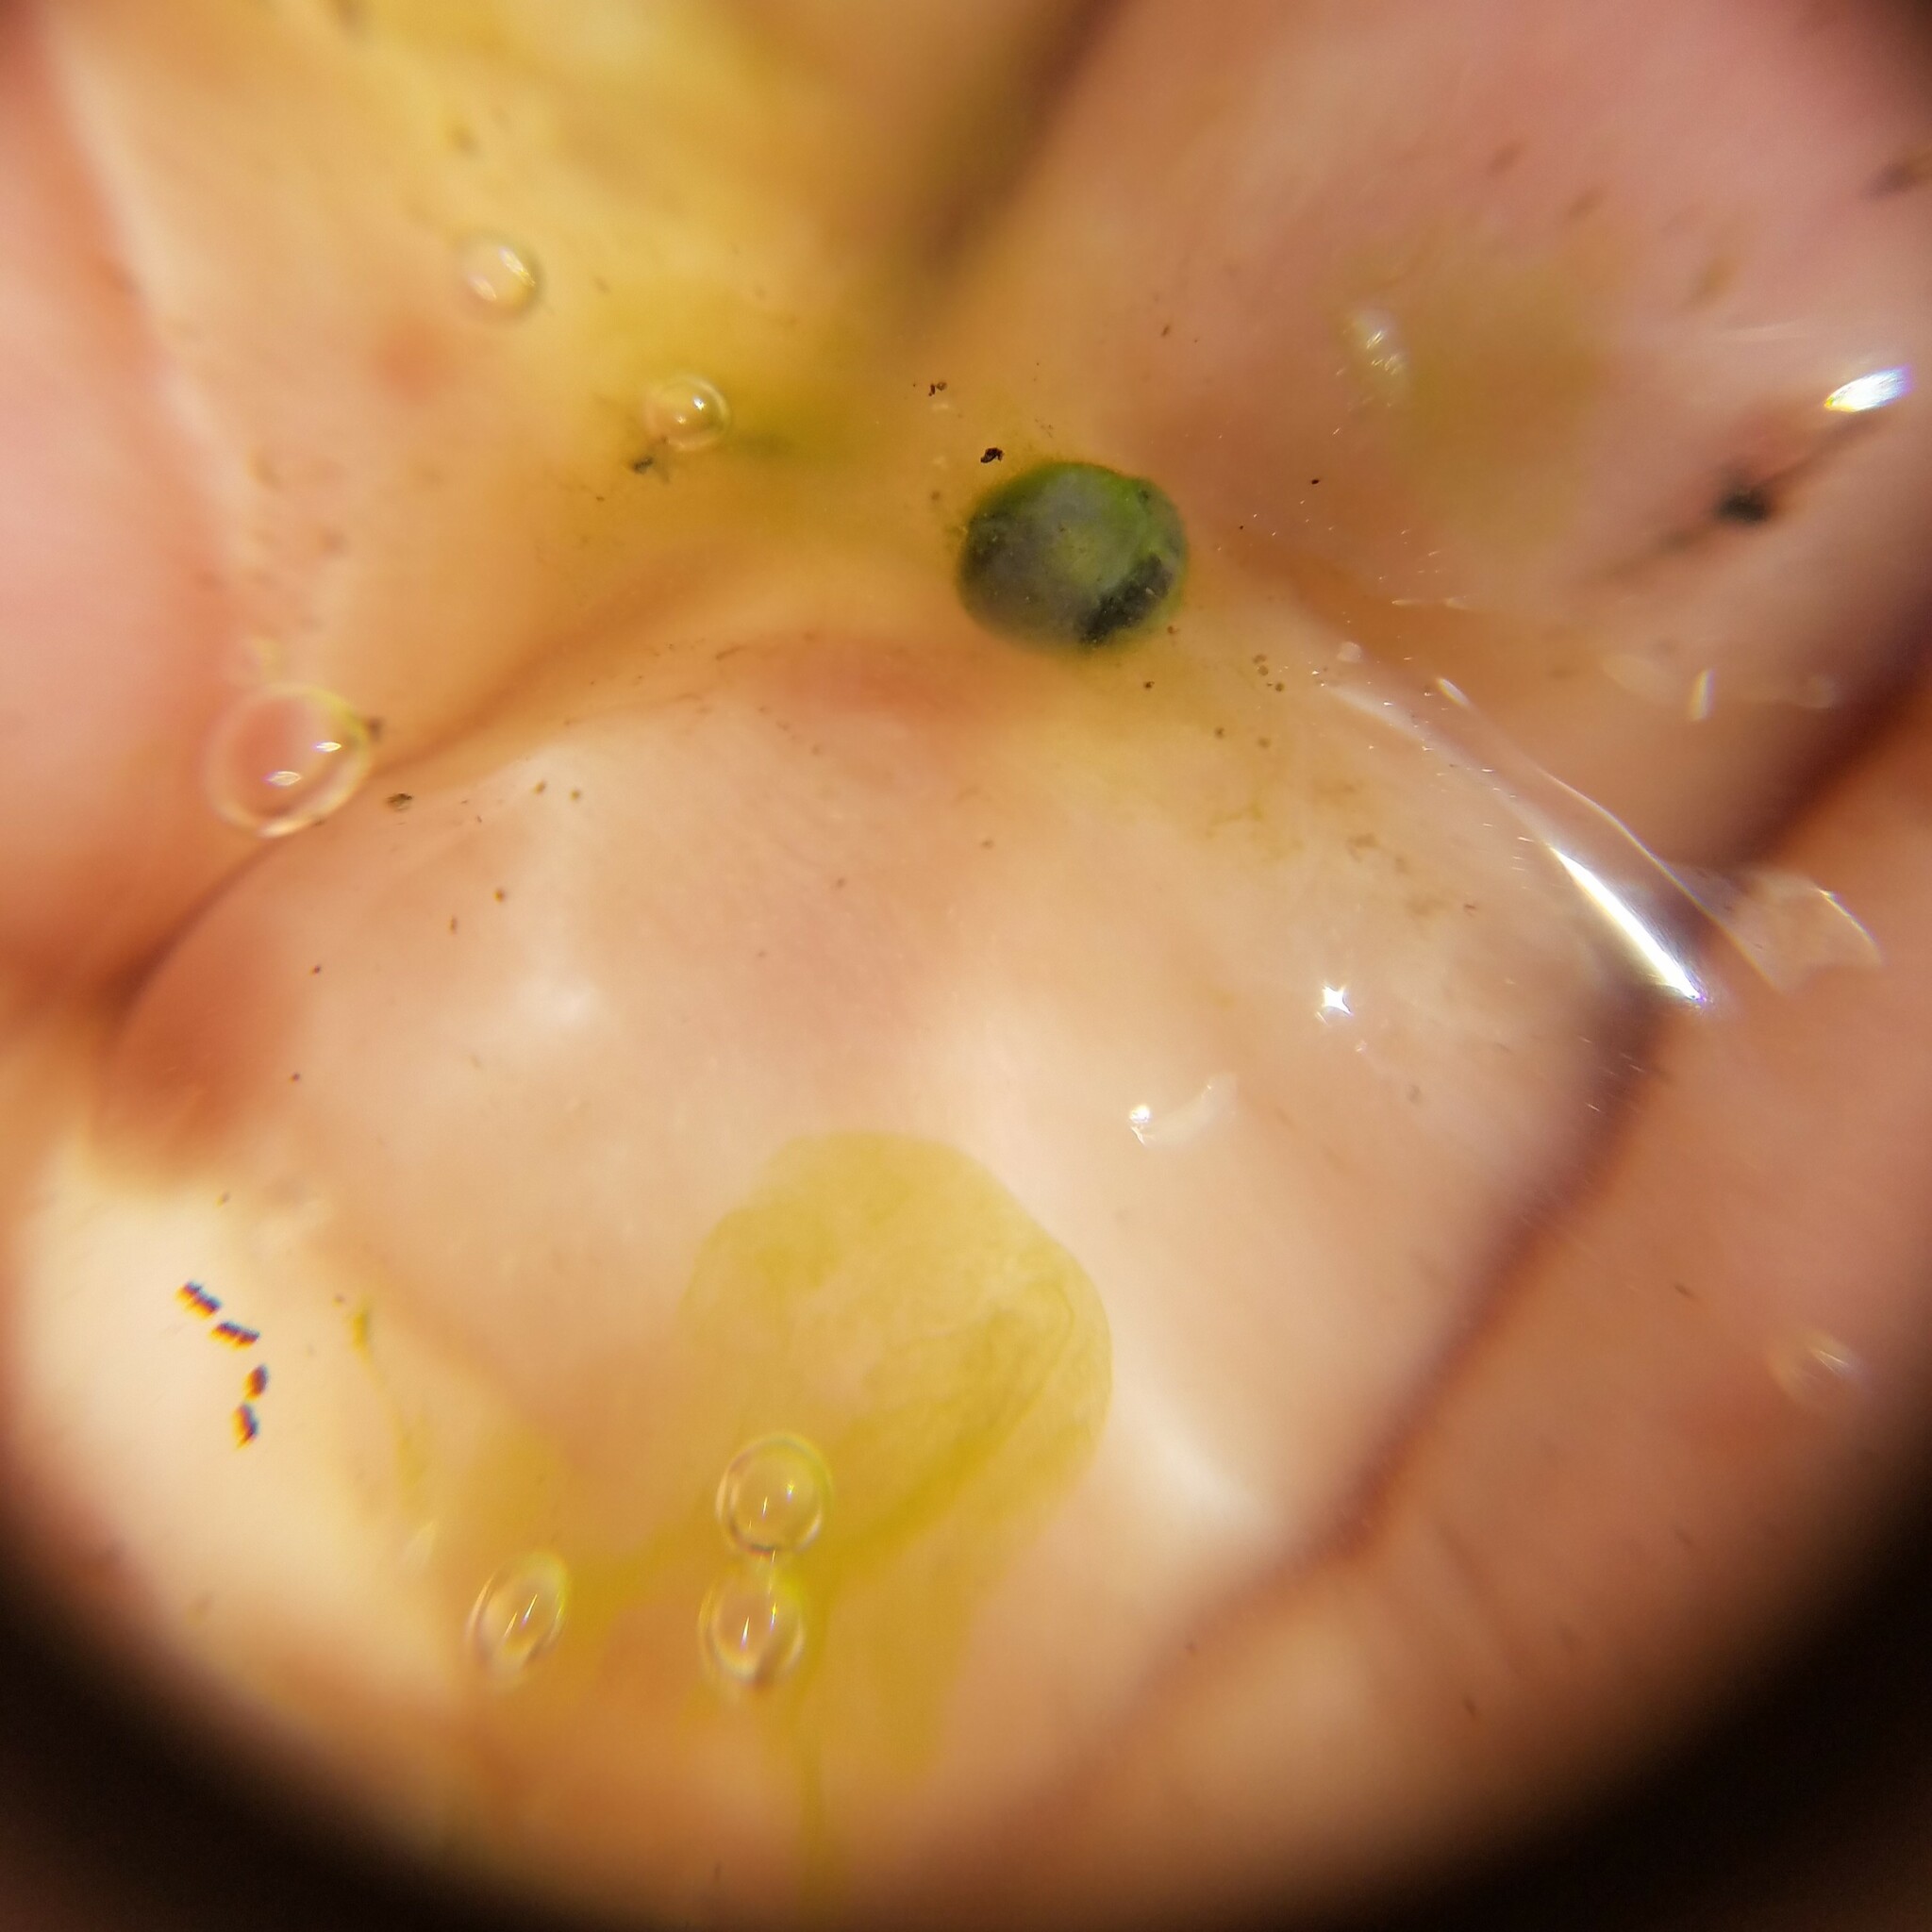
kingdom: Plantae
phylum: Chlorophyta
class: Chlorophyceae
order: Chlamydomonadales
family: Chlorococcaceae
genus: Oophila
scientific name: Oophila amblystomatis
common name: Salamander algae
